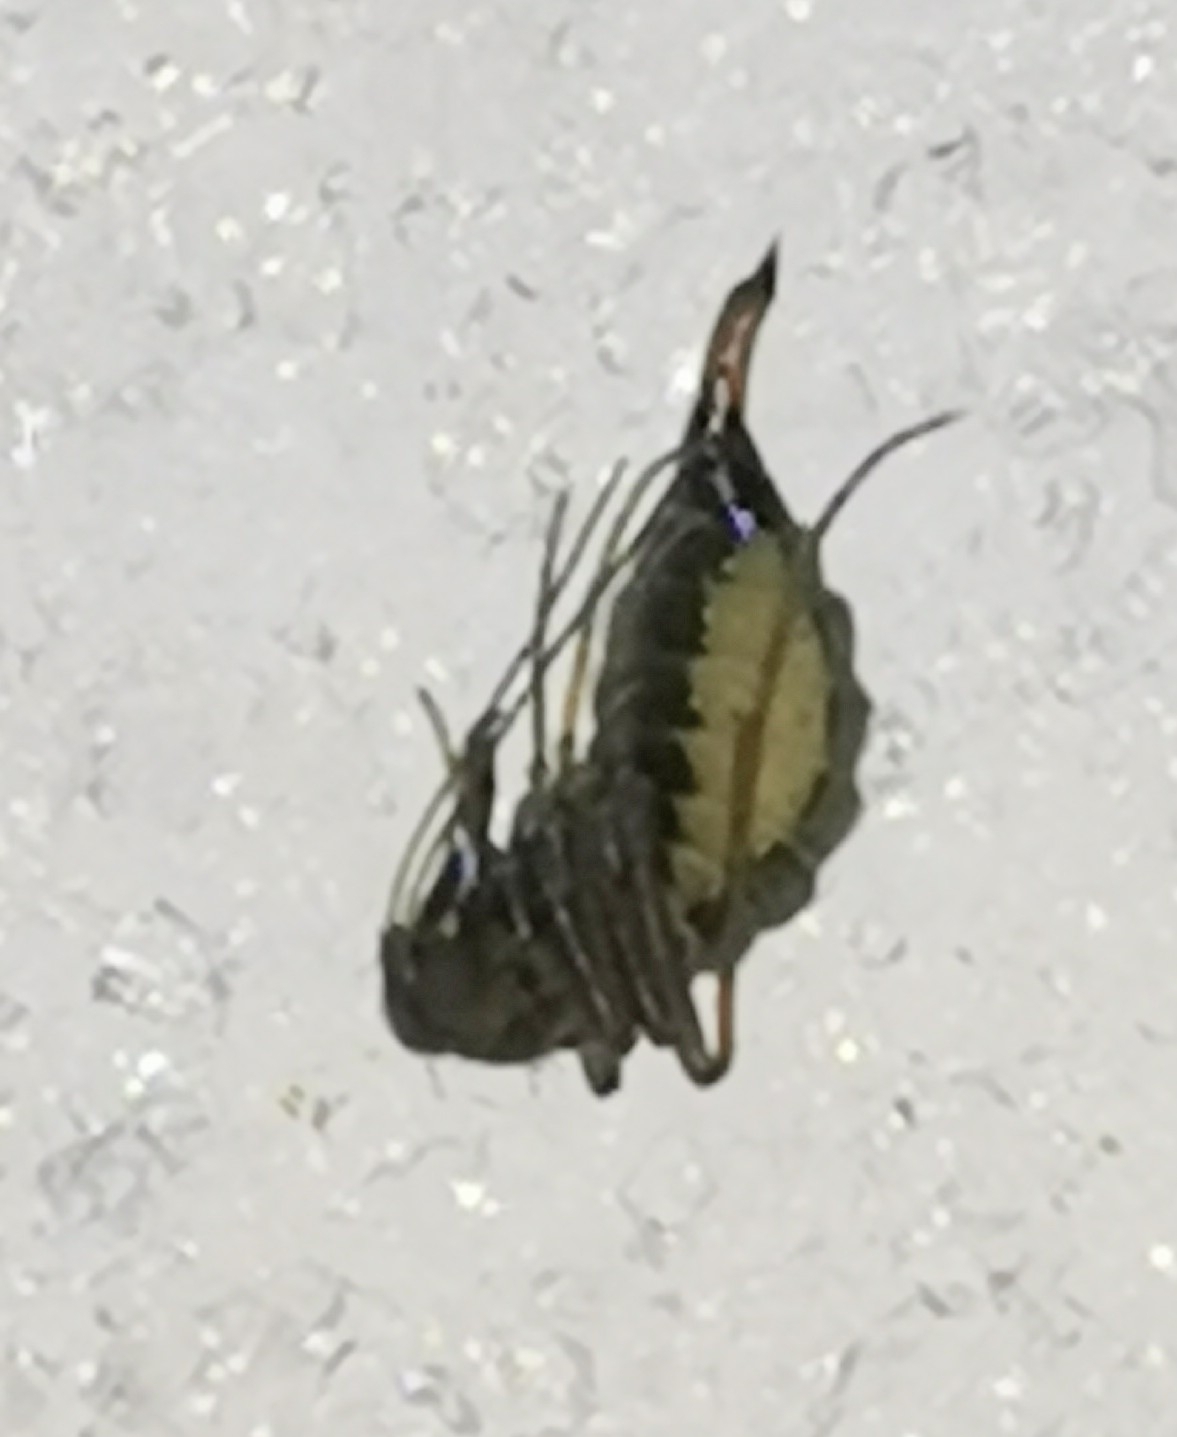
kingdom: Animalia
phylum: Arthropoda
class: Insecta
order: Mecoptera
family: Boreidae
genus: Boreus
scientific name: Boreus westwoodi
